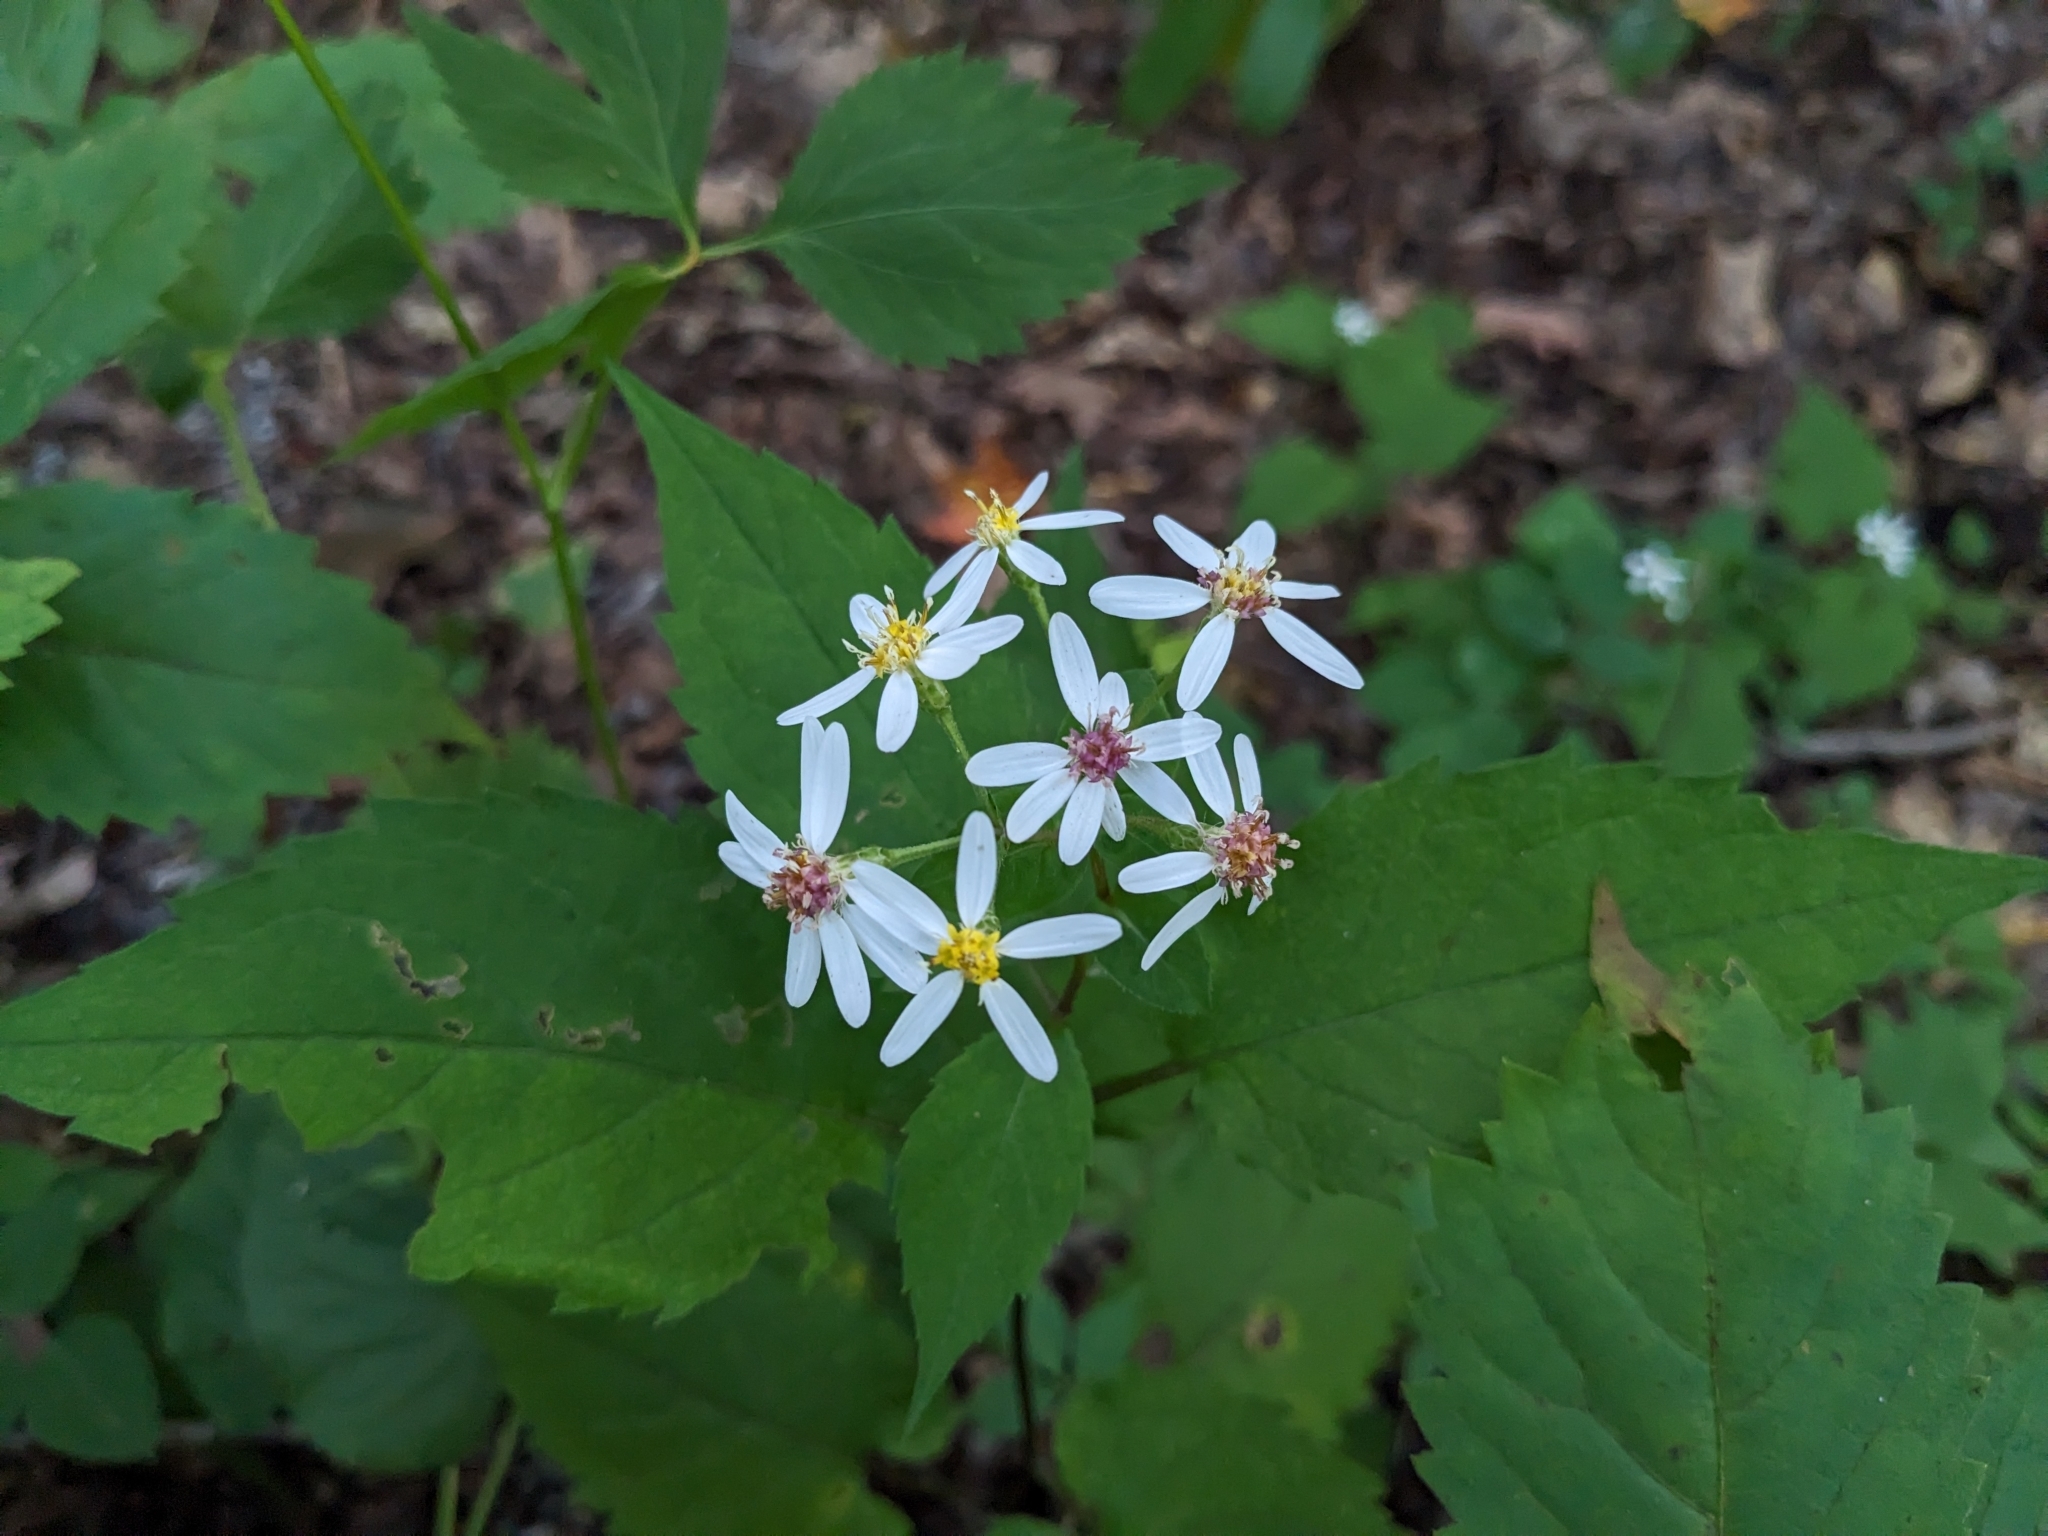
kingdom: Plantae
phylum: Tracheophyta
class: Magnoliopsida
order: Asterales
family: Asteraceae
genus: Eurybia
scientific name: Eurybia divaricata
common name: White wood aster
